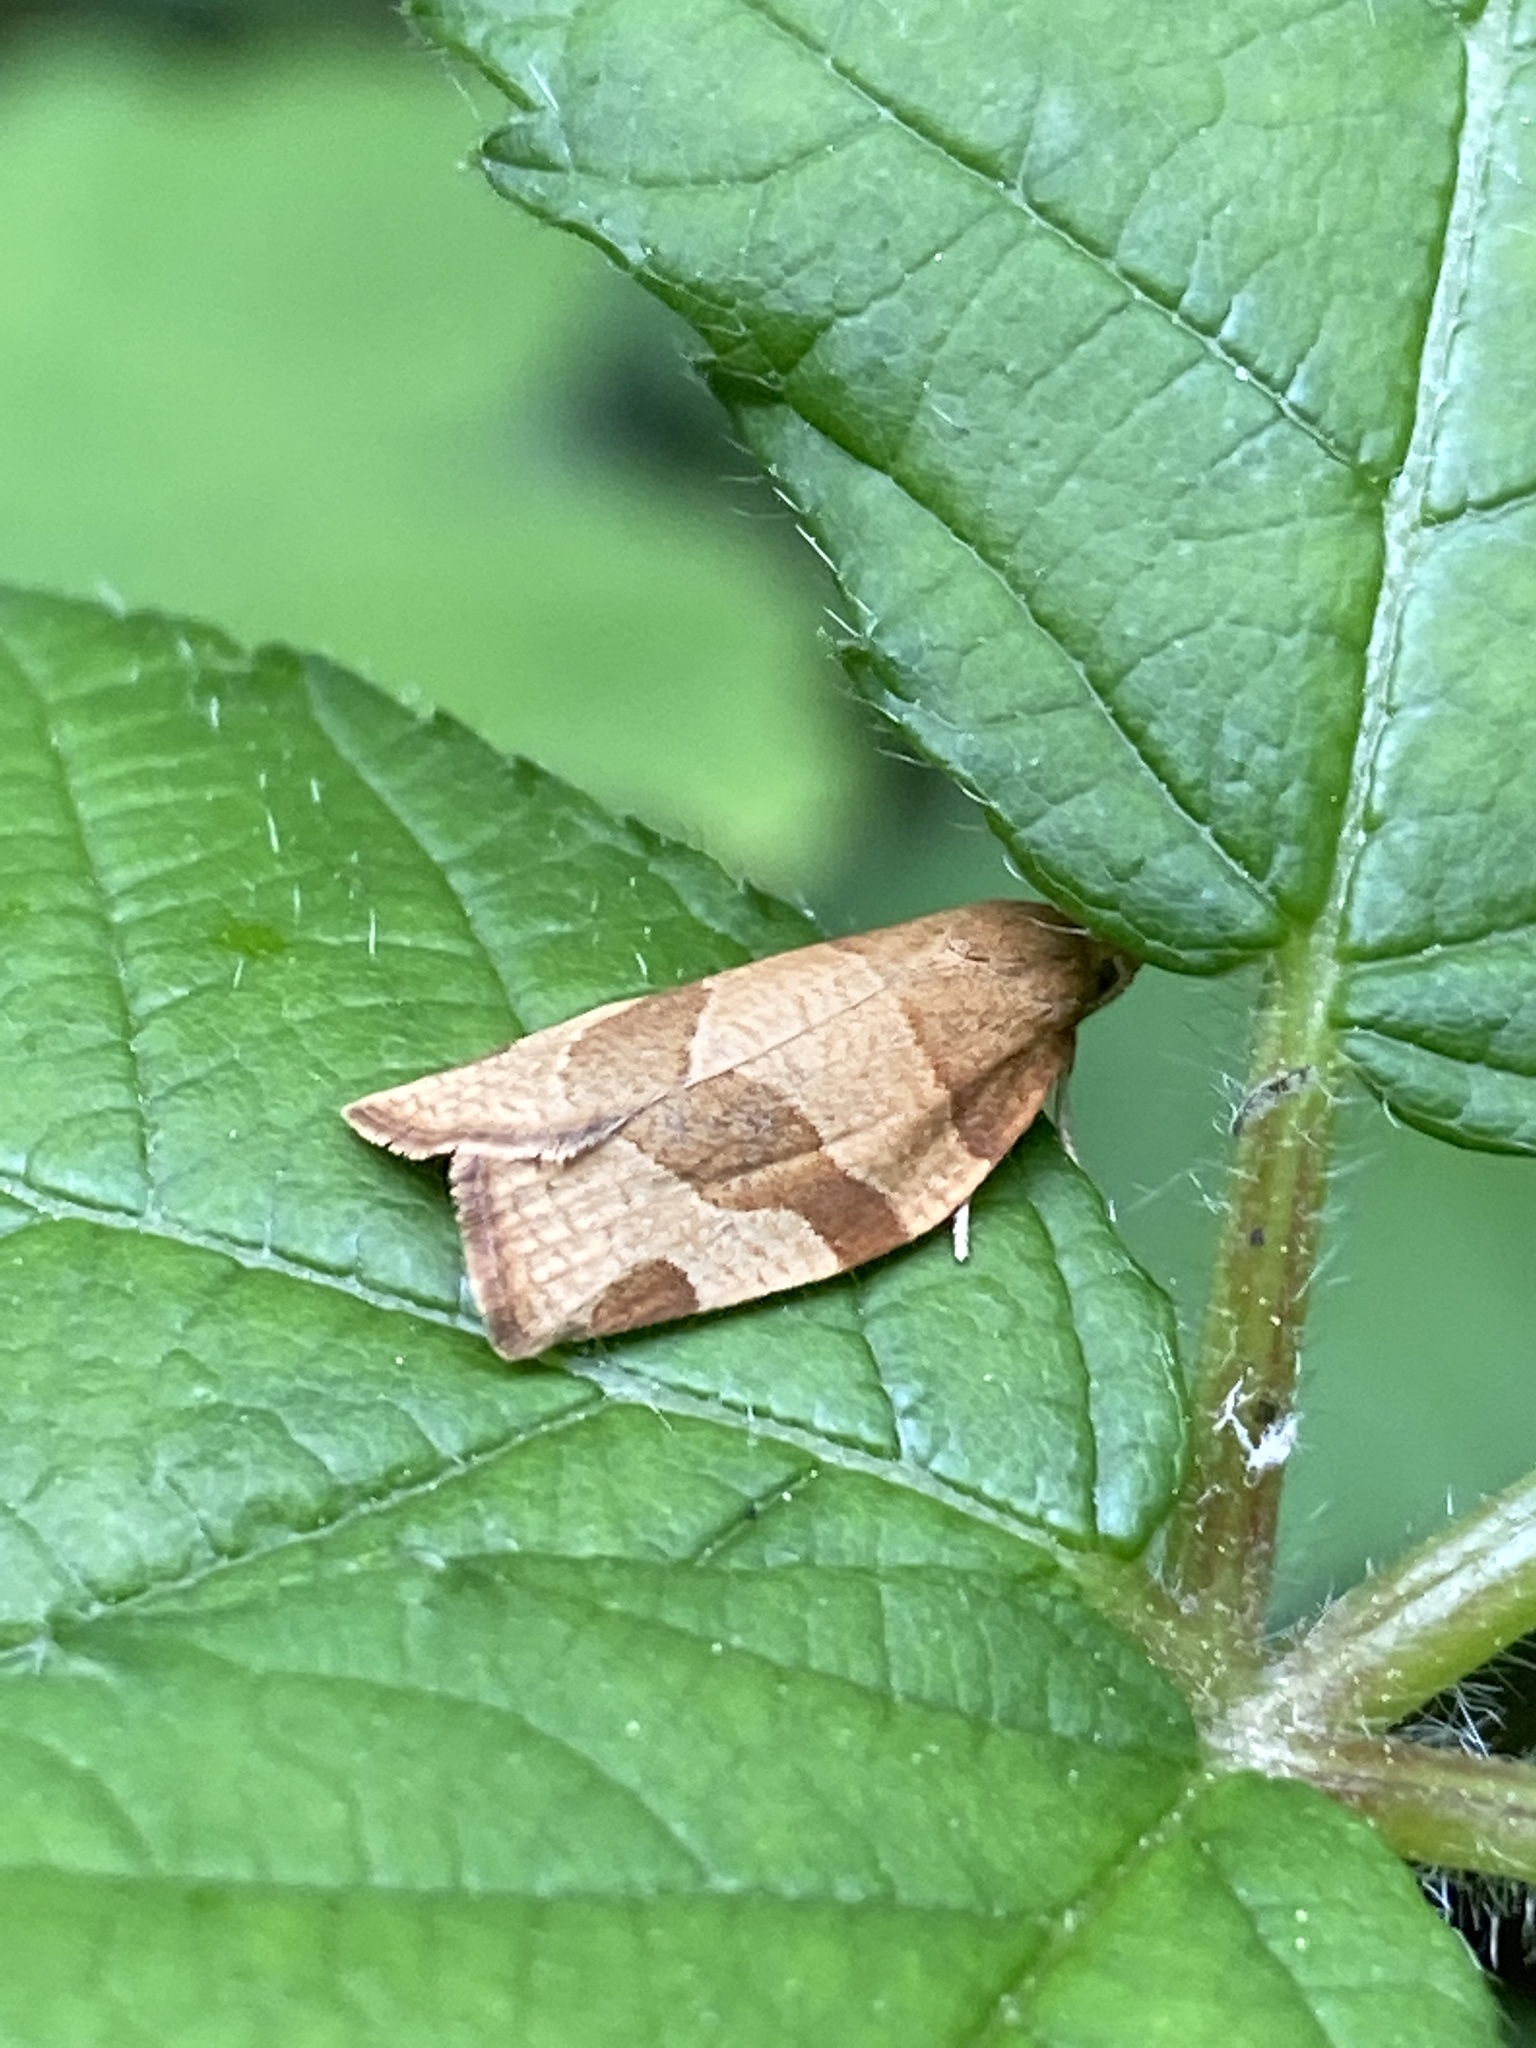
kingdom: Animalia
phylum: Arthropoda
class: Insecta
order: Lepidoptera
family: Tortricidae
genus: Pandemis
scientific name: Pandemis cerasana
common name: Barred fruit-tree tortrix
